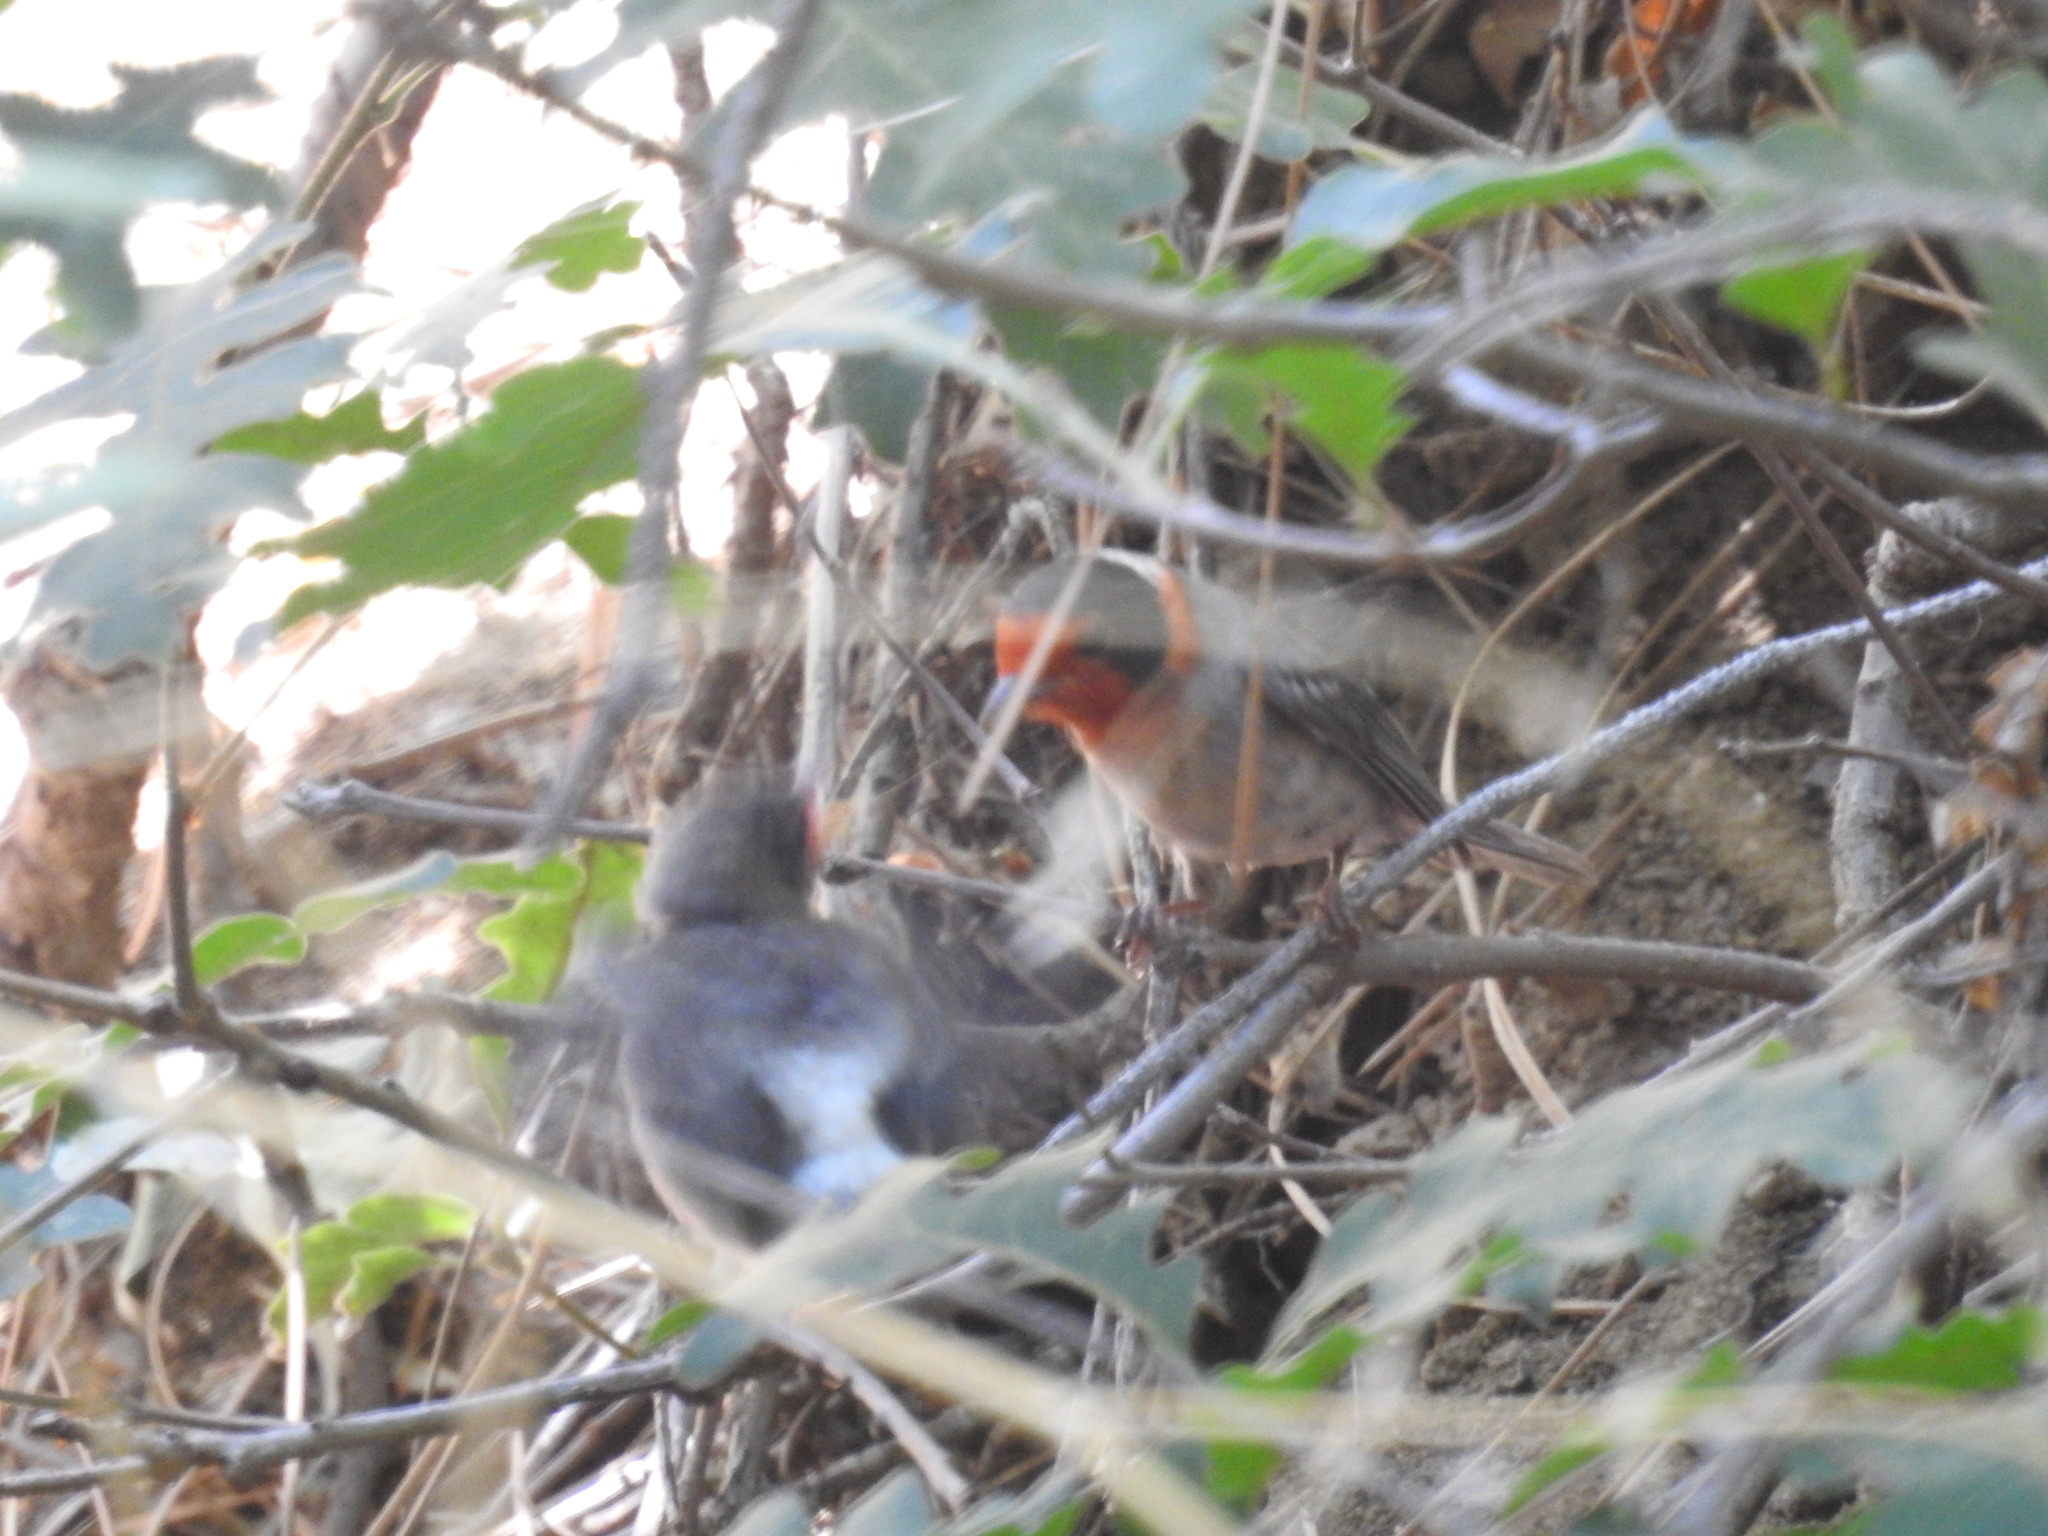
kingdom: Animalia
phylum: Chordata
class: Aves
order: Passeriformes
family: Parulidae
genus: Cardellina
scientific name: Cardellina rubrifrons
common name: Red-faced warbler
